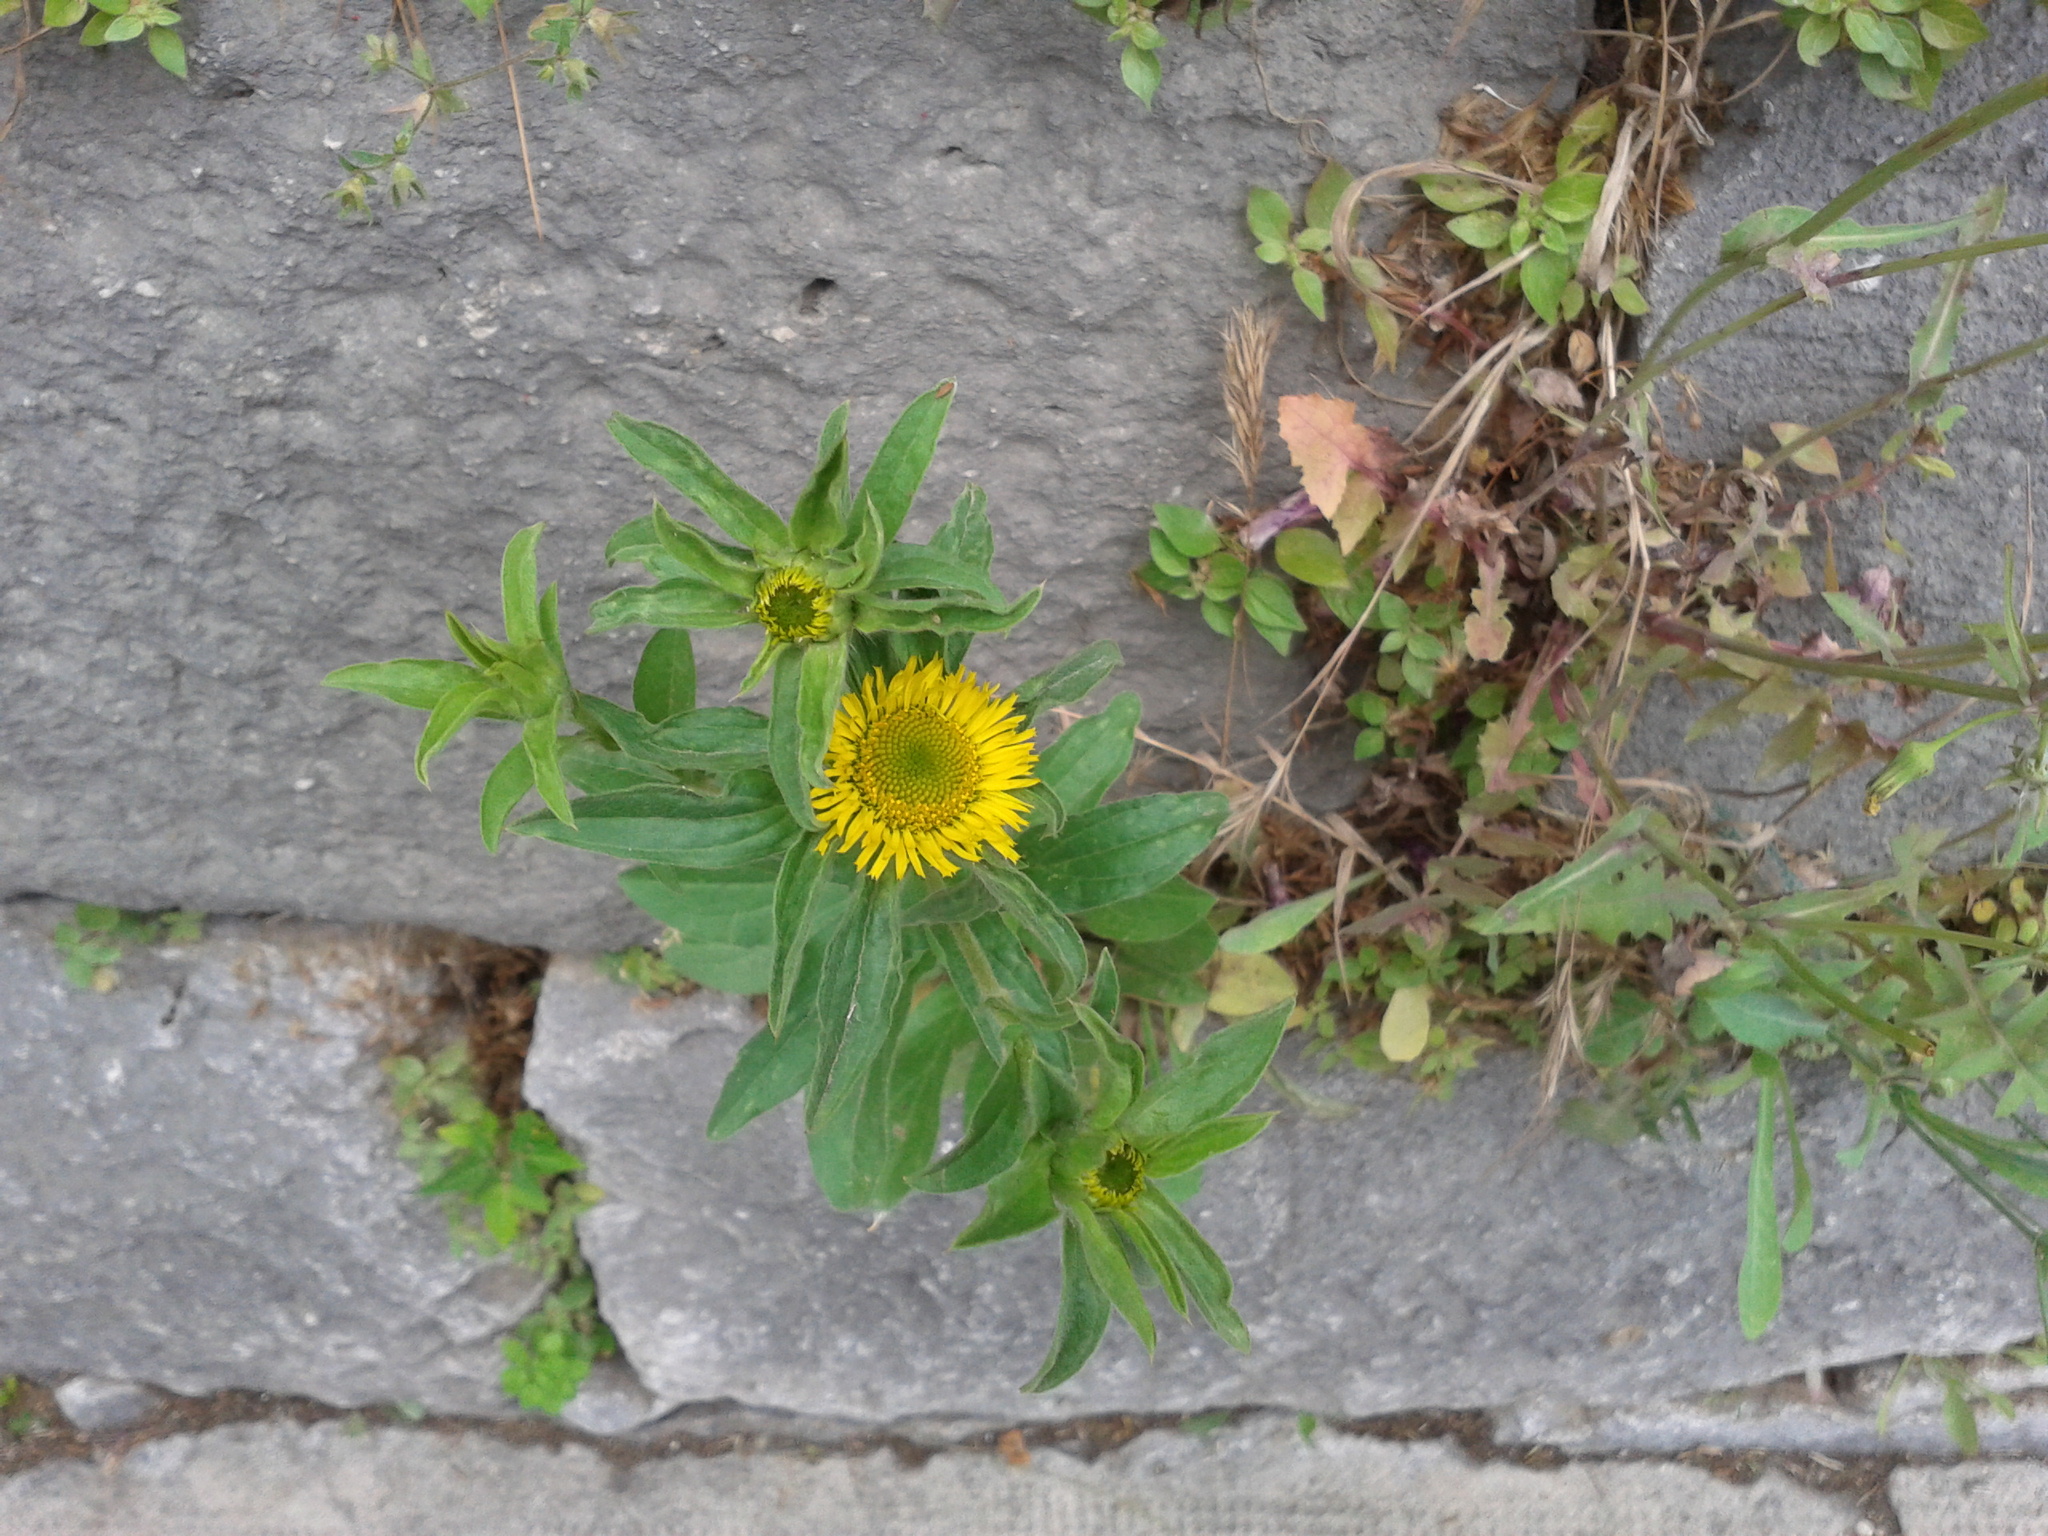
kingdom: Plantae
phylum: Tracheophyta
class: Magnoliopsida
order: Asterales
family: Asteraceae
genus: Pallenis
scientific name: Pallenis spinosa
